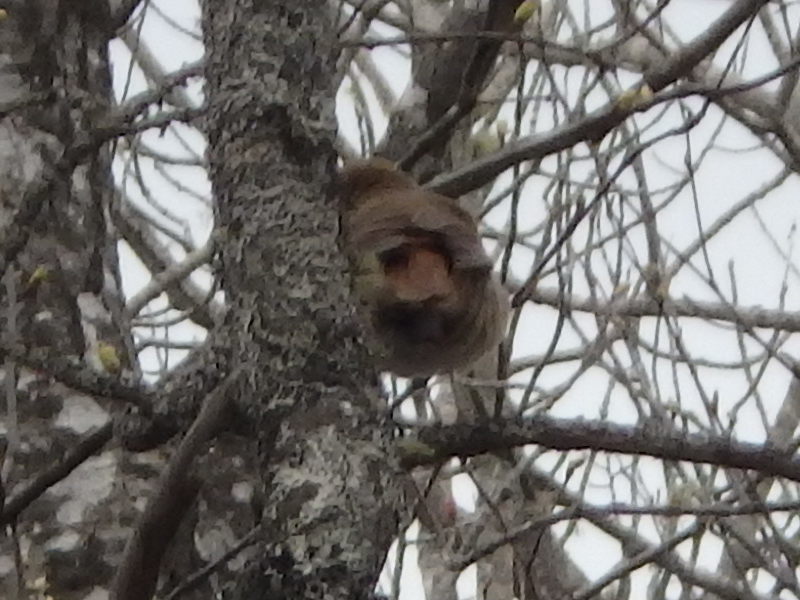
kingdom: Animalia
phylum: Chordata
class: Aves
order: Passeriformes
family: Turdidae
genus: Catharus
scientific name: Catharus guttatus
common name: Hermit thrush
